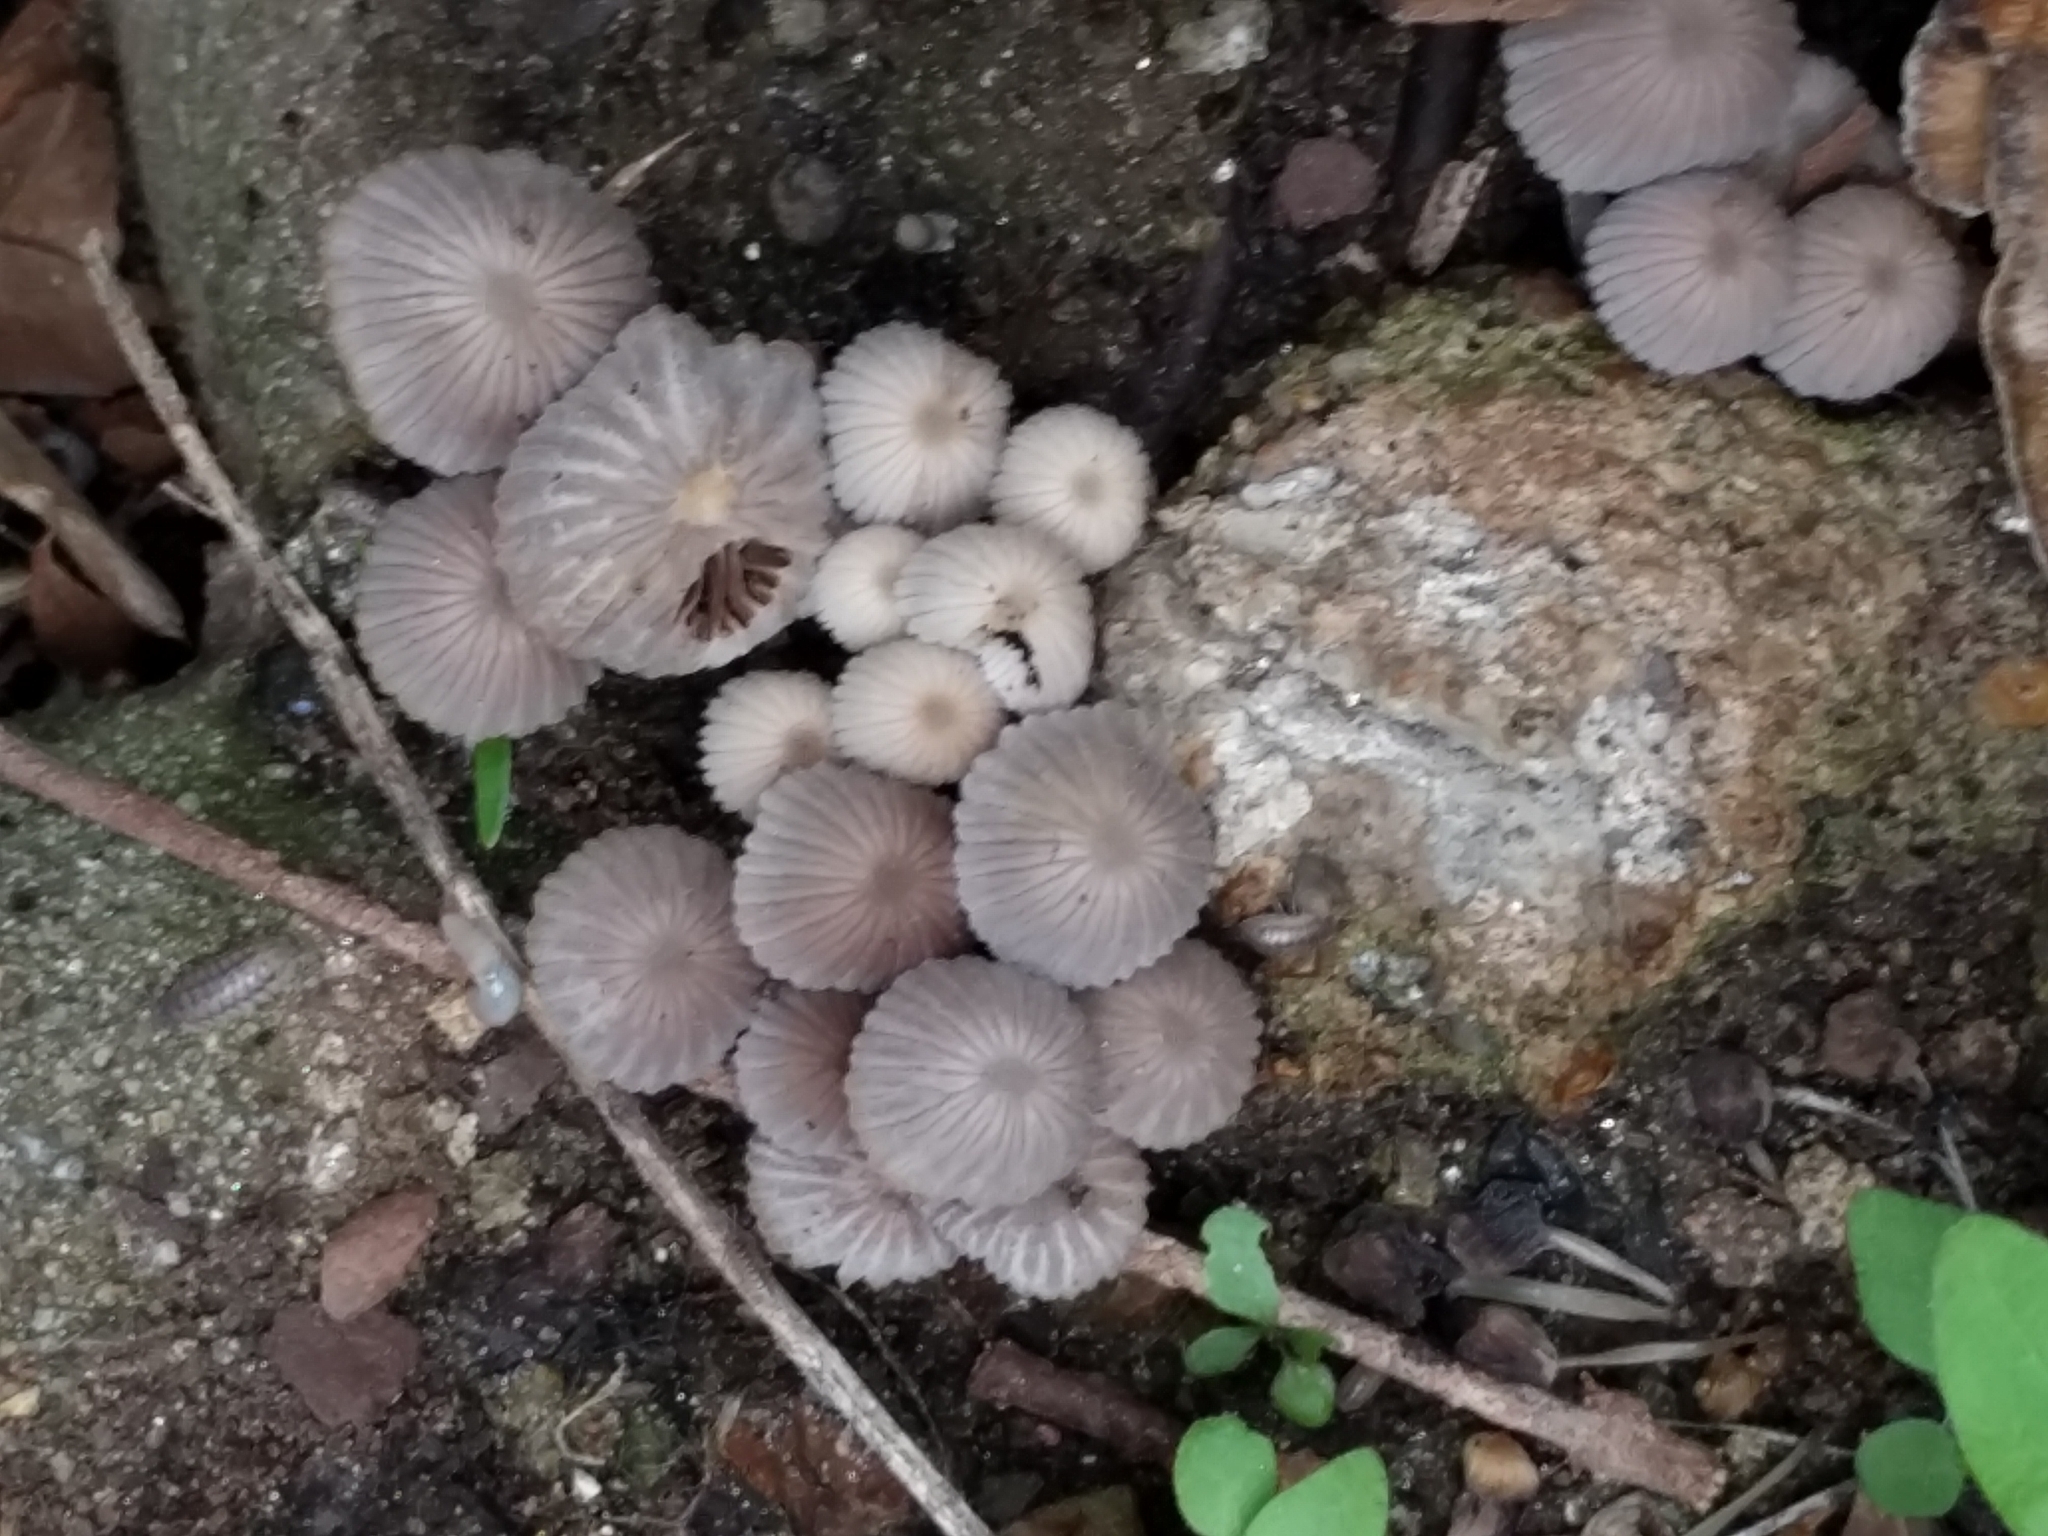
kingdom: Fungi
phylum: Basidiomycota
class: Agaricomycetes
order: Agaricales
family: Psathyrellaceae
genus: Coprinellus
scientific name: Coprinellus disseminatus
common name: Fairies' bonnets
